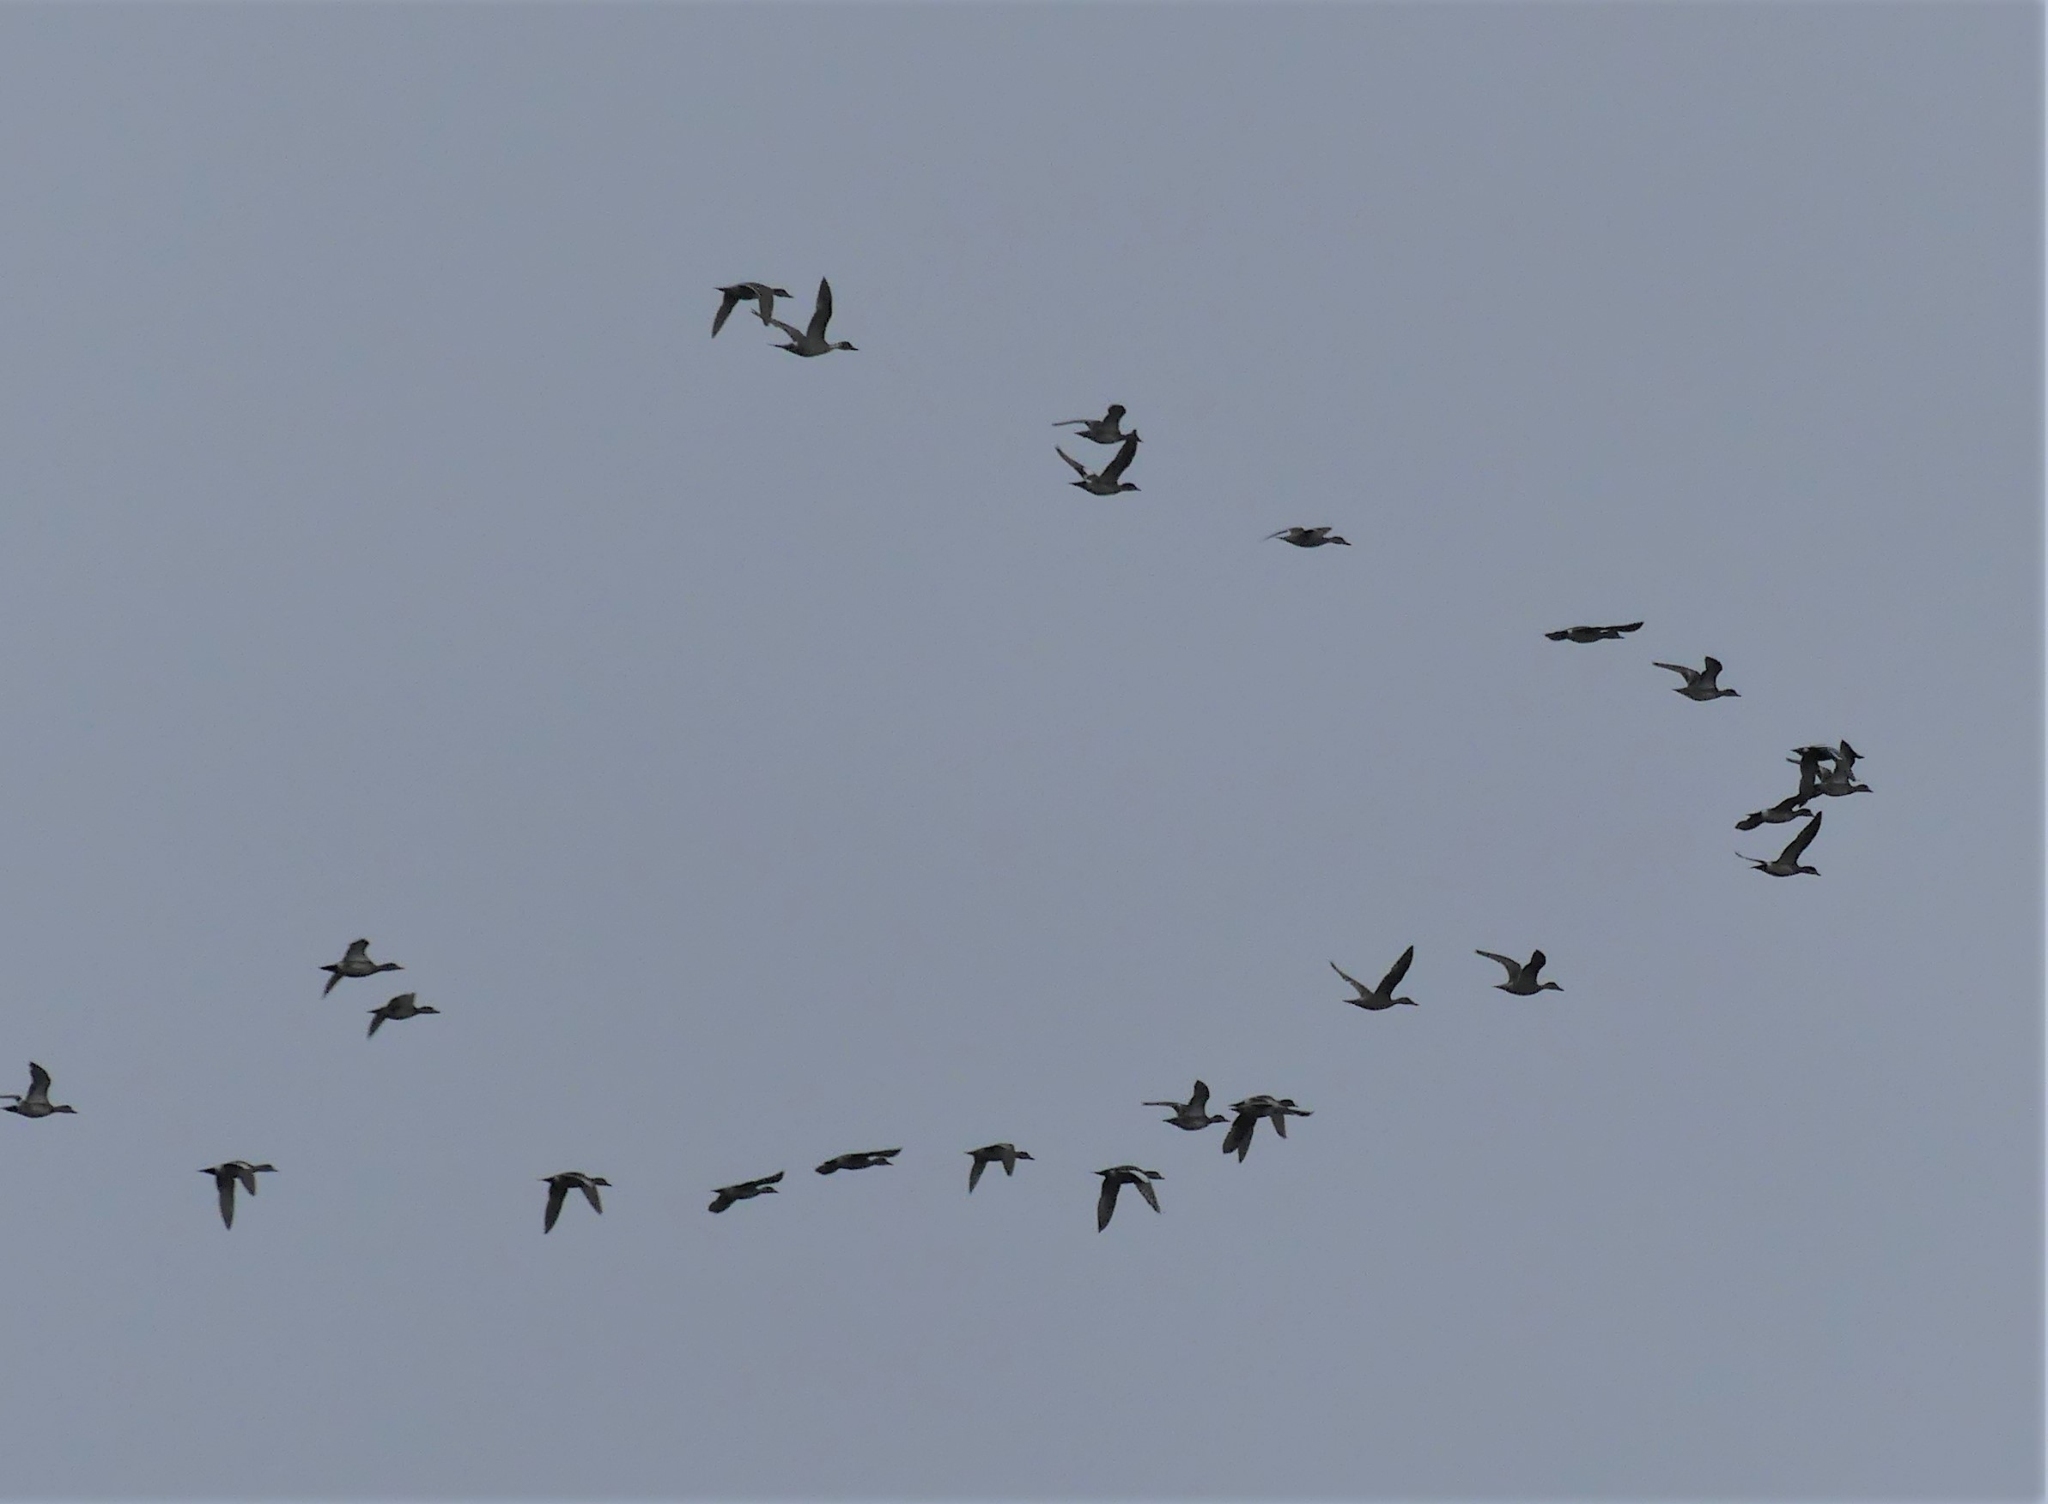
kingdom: Animalia
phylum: Chordata
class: Aves
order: Anseriformes
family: Anatidae
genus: Mareca
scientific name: Mareca americana
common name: American wigeon
